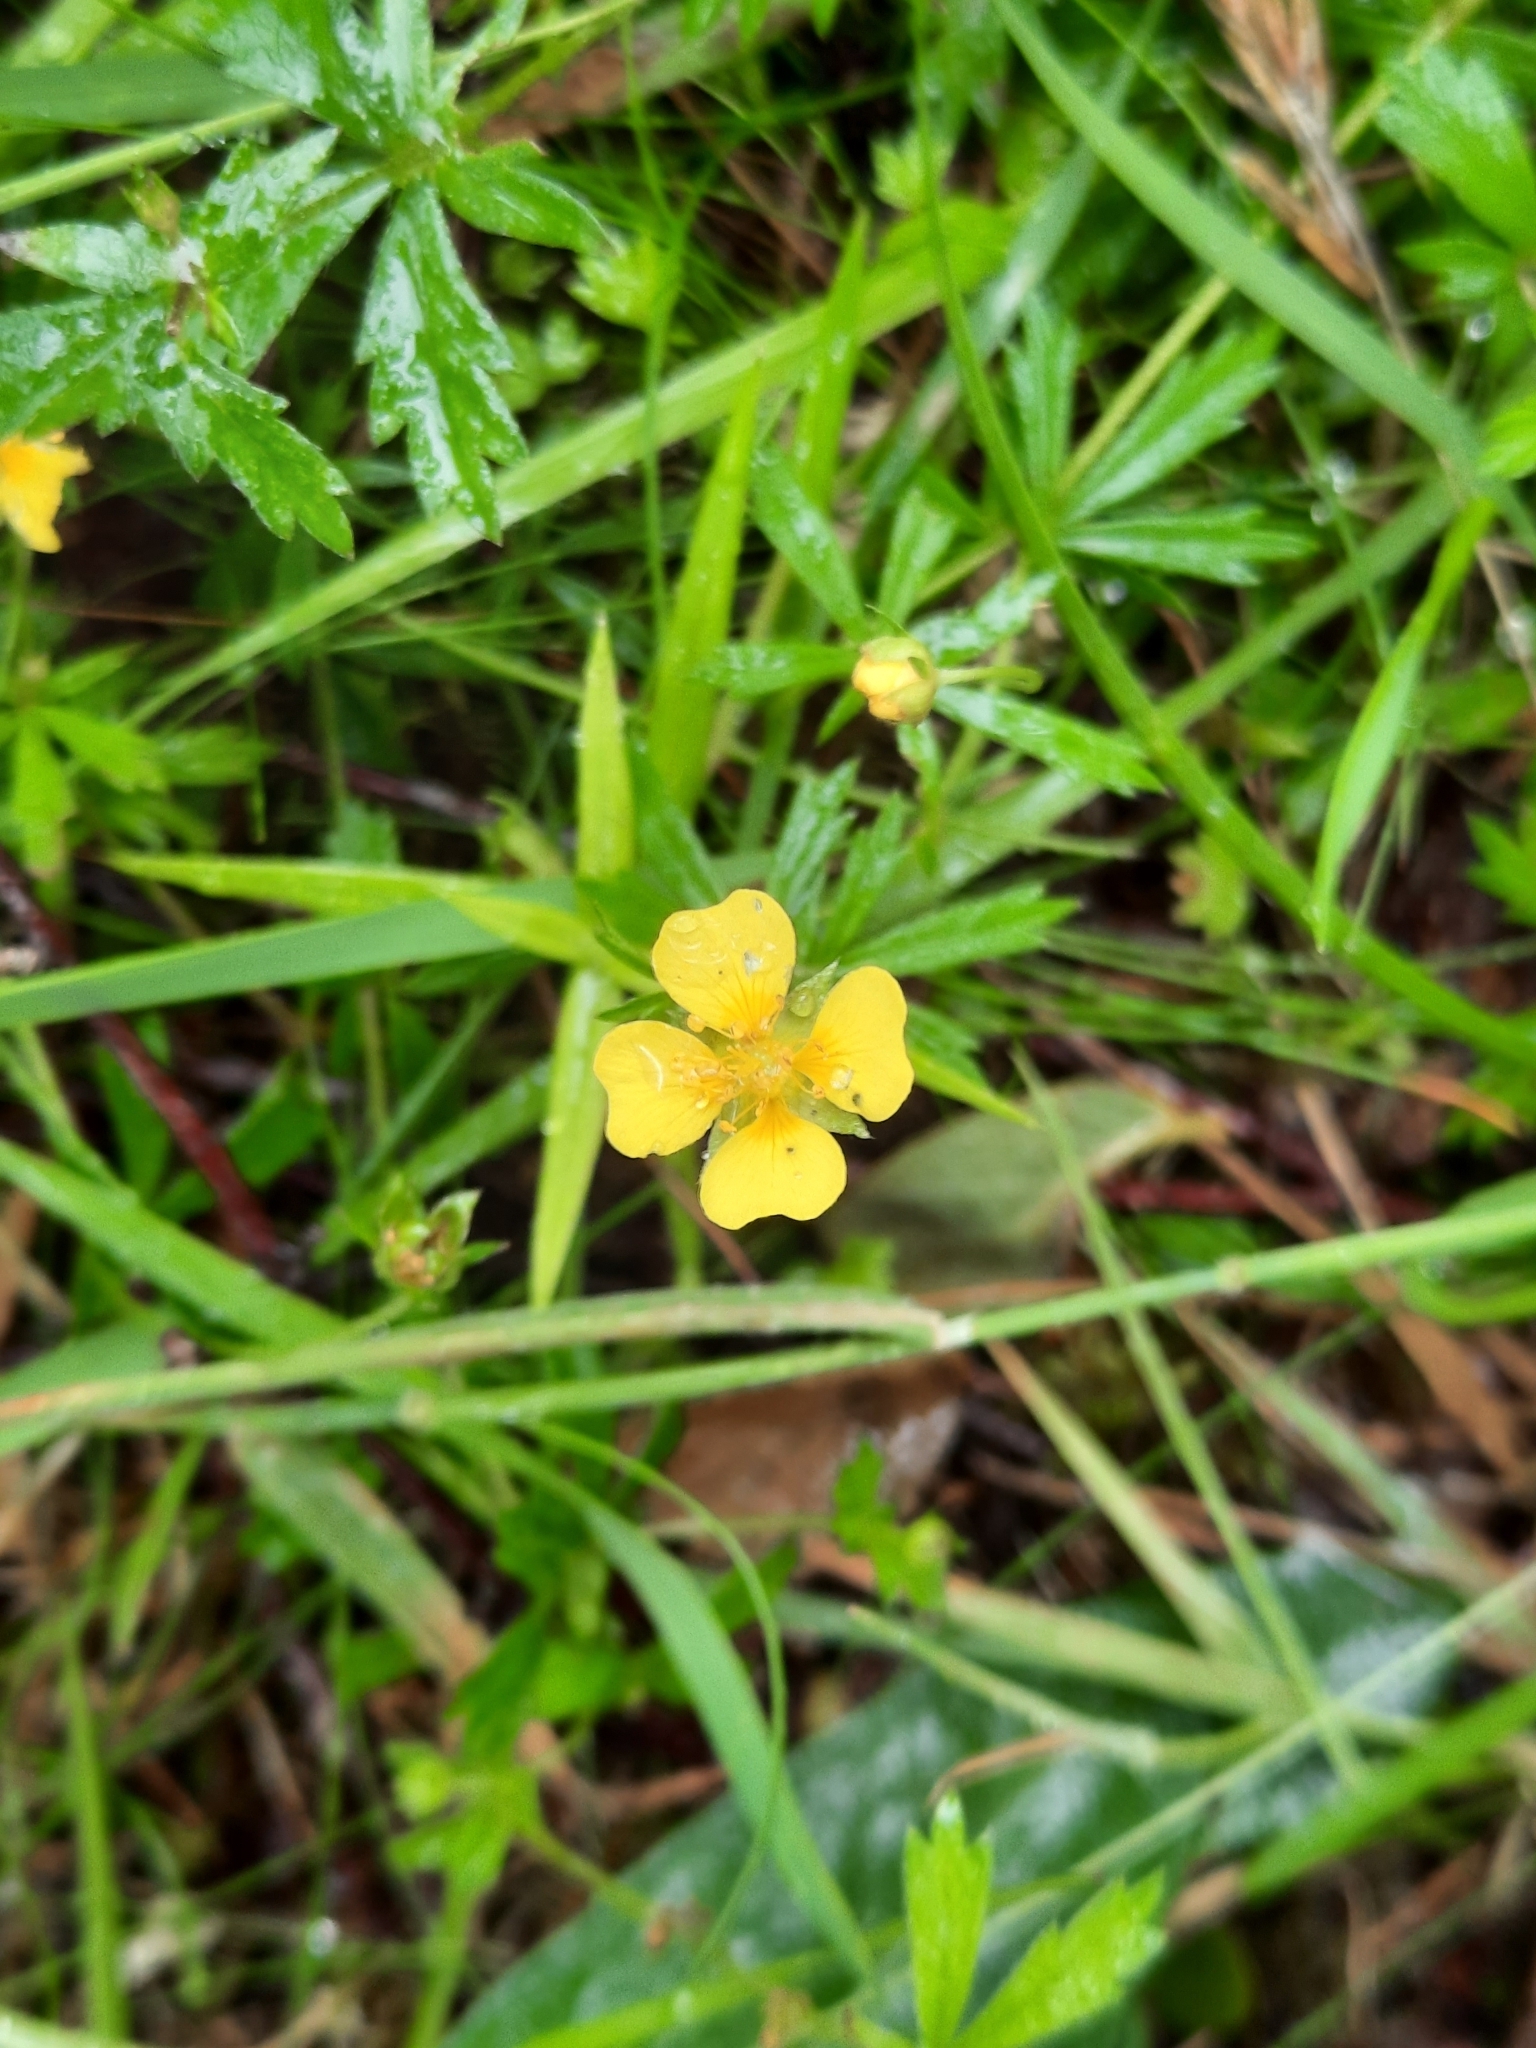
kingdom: Plantae
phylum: Tracheophyta
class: Magnoliopsida
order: Rosales
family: Rosaceae
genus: Potentilla
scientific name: Potentilla erecta
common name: Tormentil
